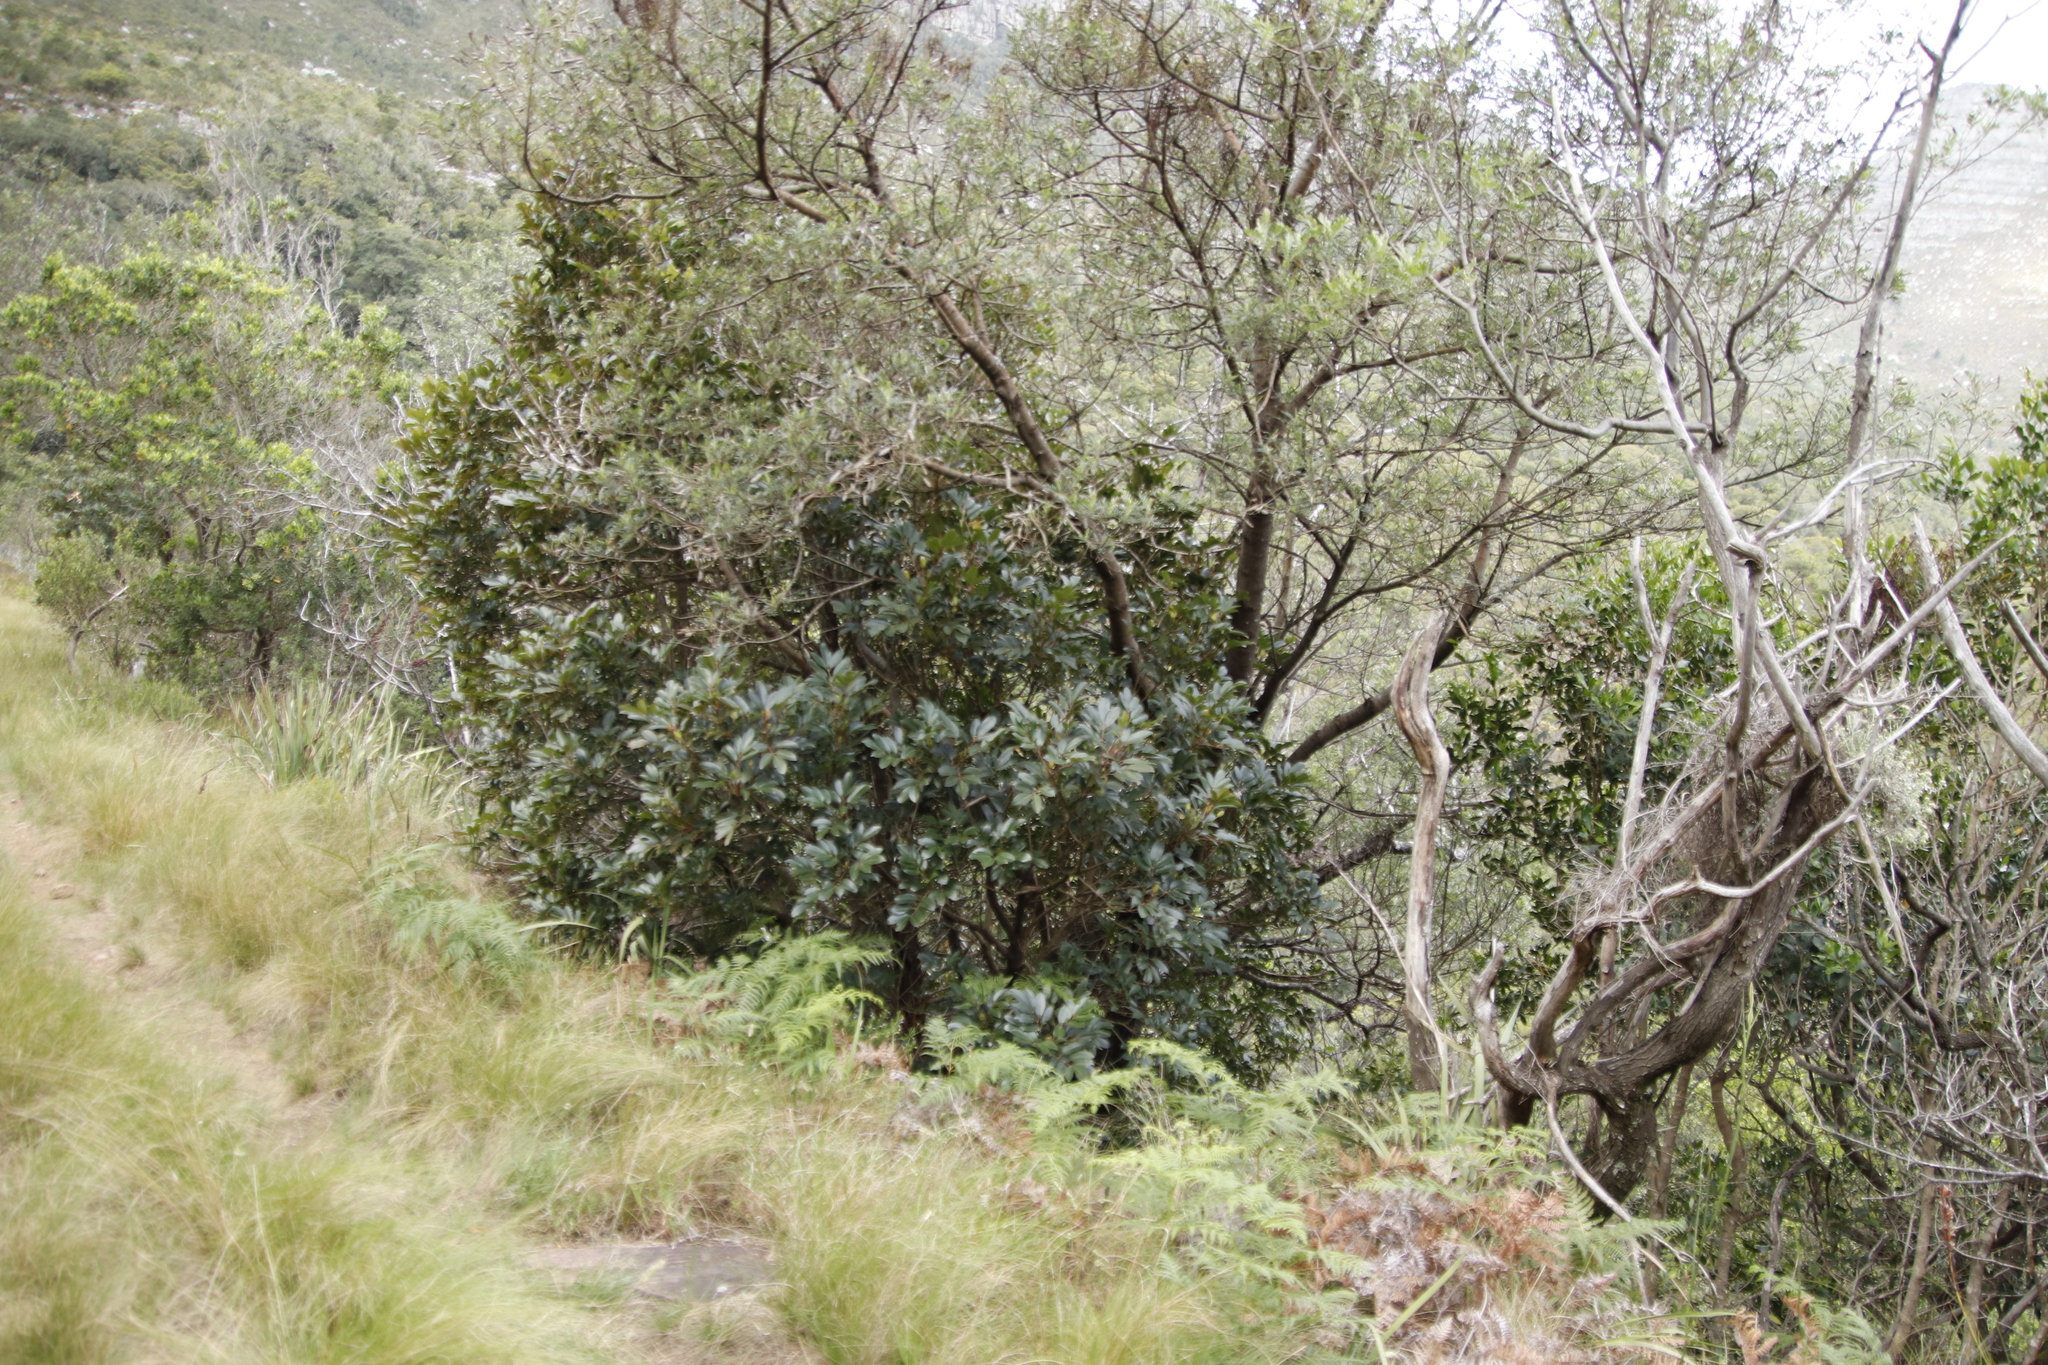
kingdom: Plantae
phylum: Tracheophyta
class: Magnoliopsida
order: Oxalidales
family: Cunoniaceae
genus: Cunonia
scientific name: Cunonia capensis
